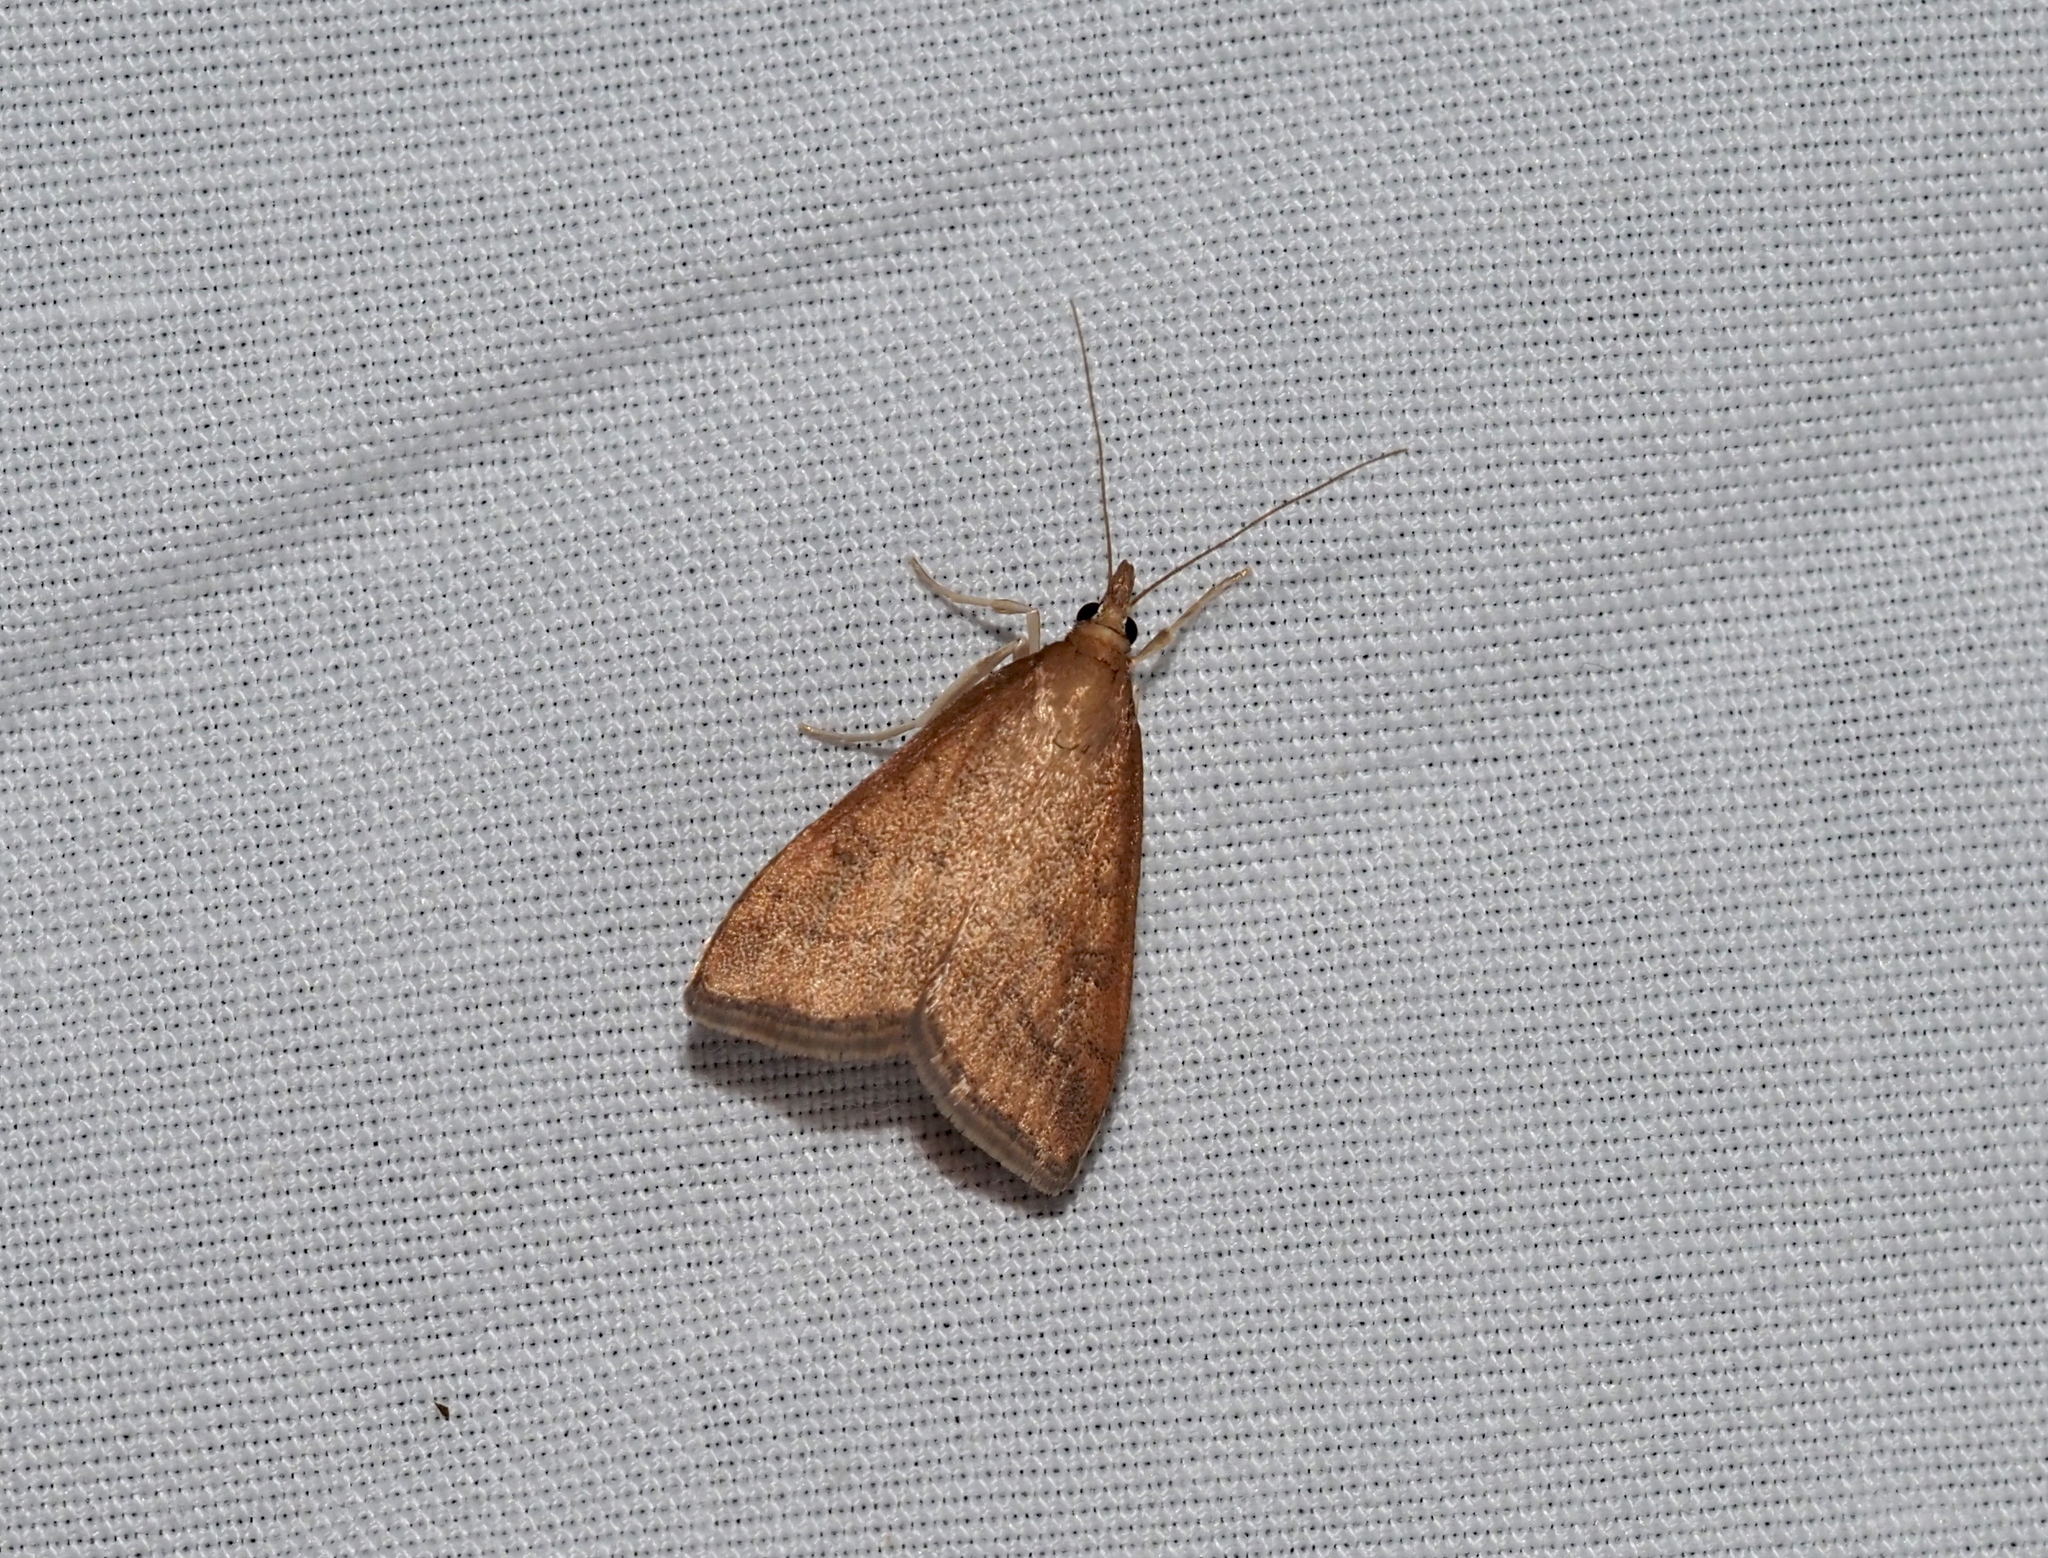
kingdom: Animalia
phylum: Arthropoda
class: Insecta
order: Lepidoptera
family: Crambidae
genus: Udea
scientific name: Udea rubigalis
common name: Celery leaftier moth
